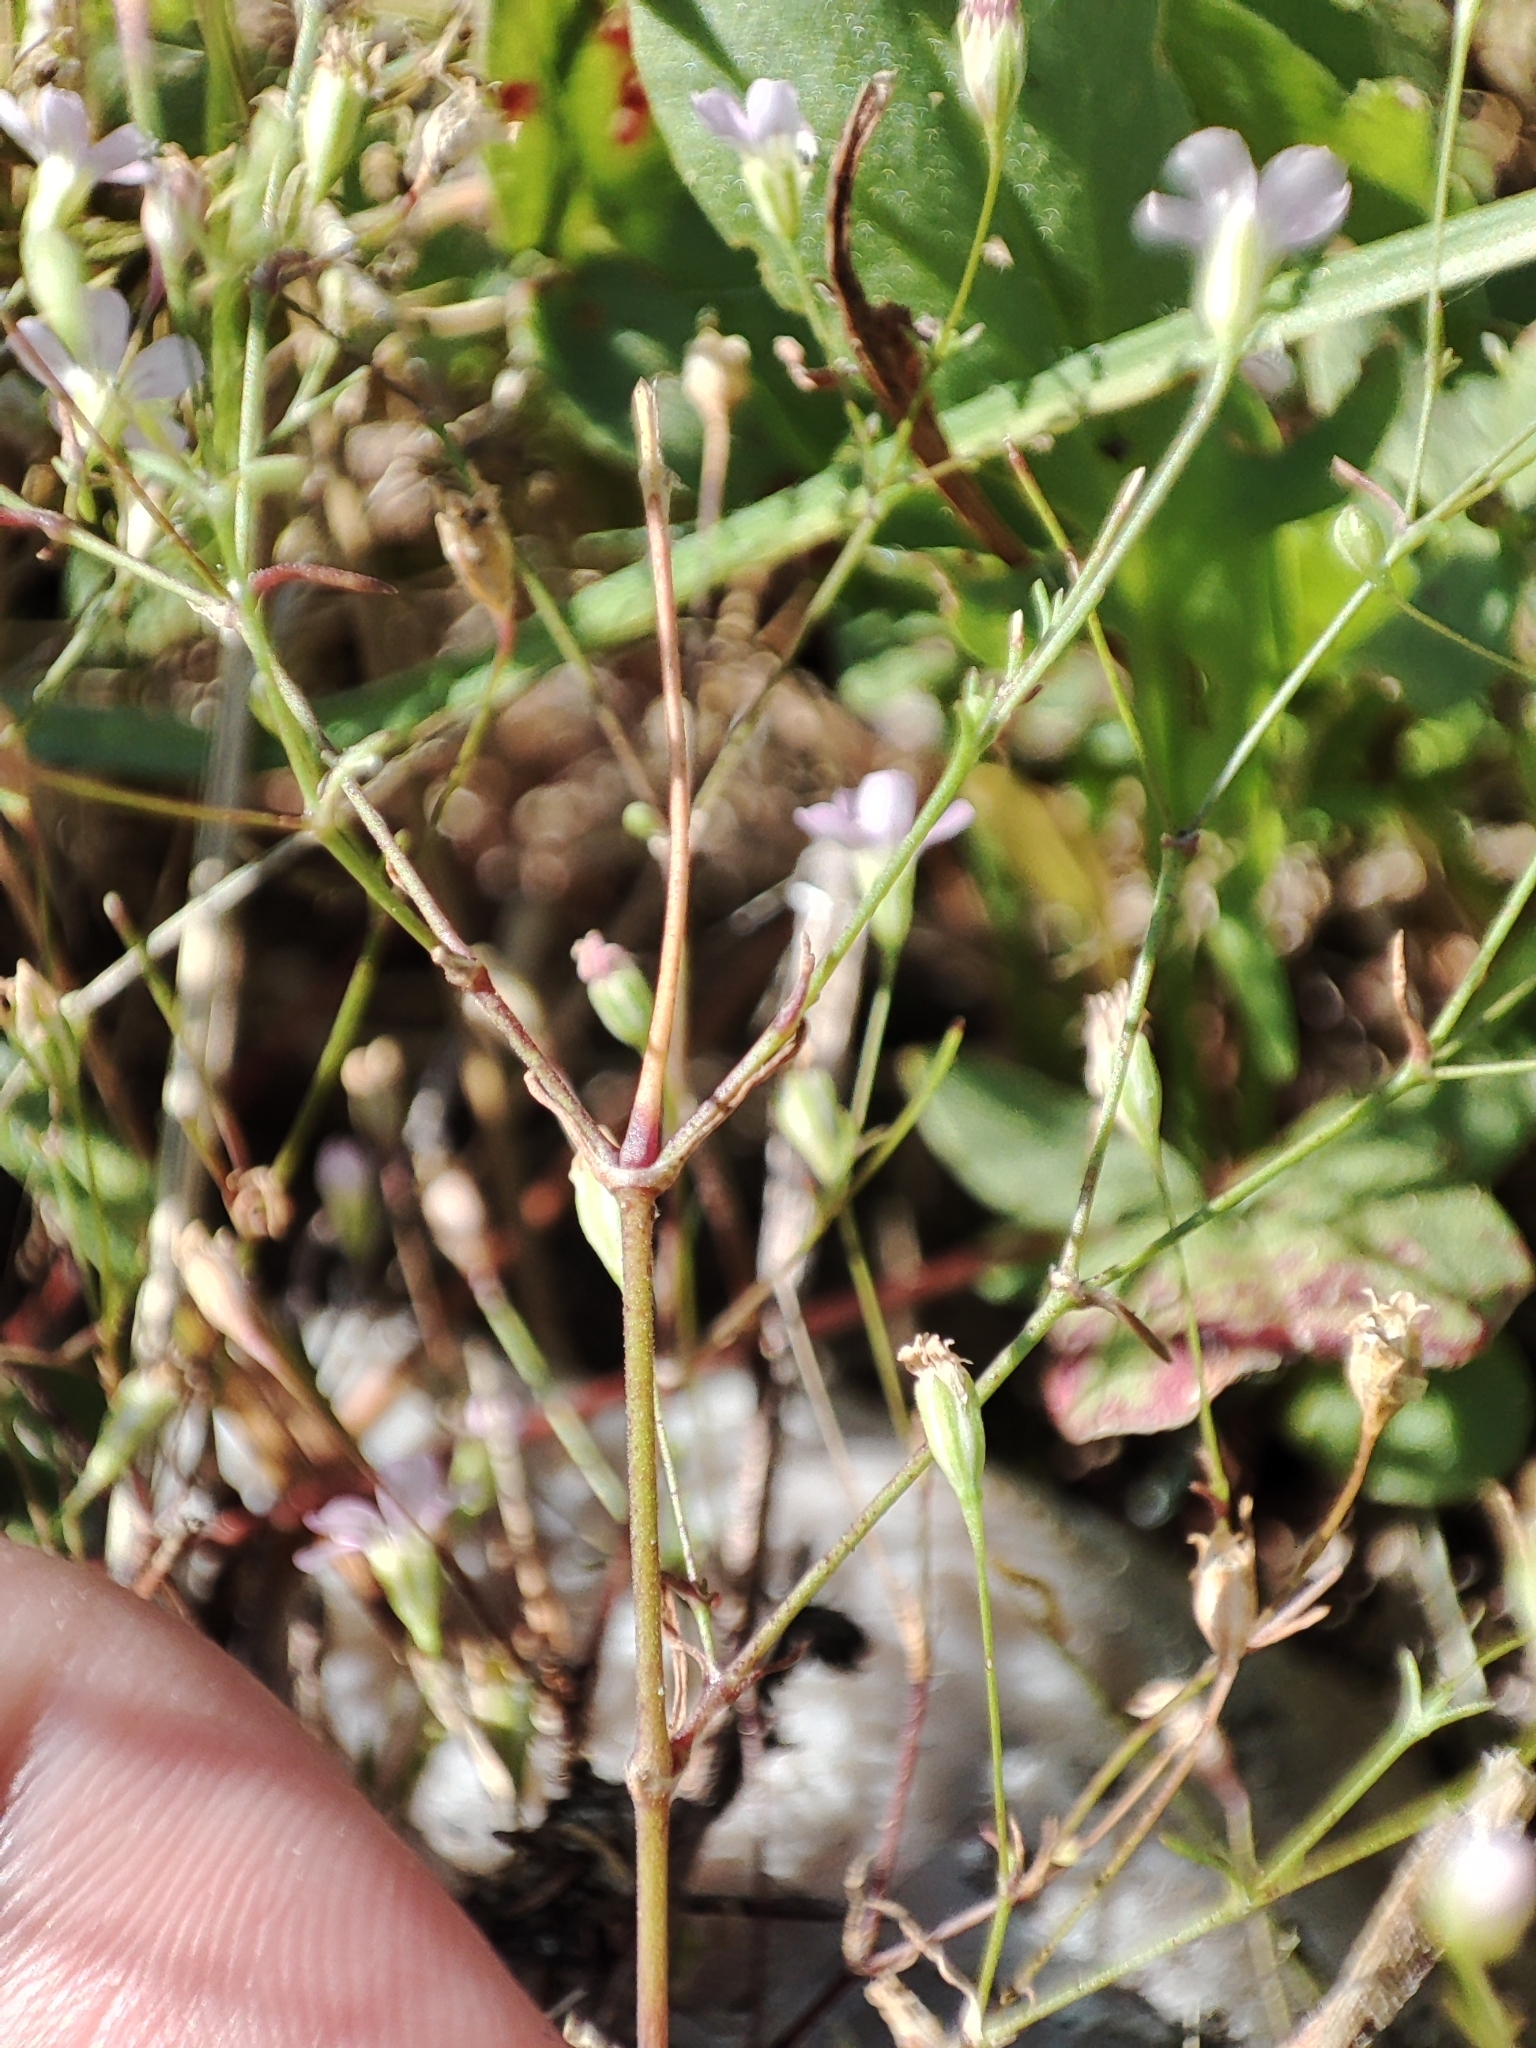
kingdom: Plantae
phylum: Tracheophyta
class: Magnoliopsida
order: Caryophyllales
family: Caryophyllaceae
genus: Psammophiliella
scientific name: Psammophiliella muralis
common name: Cushion baby's-breath
